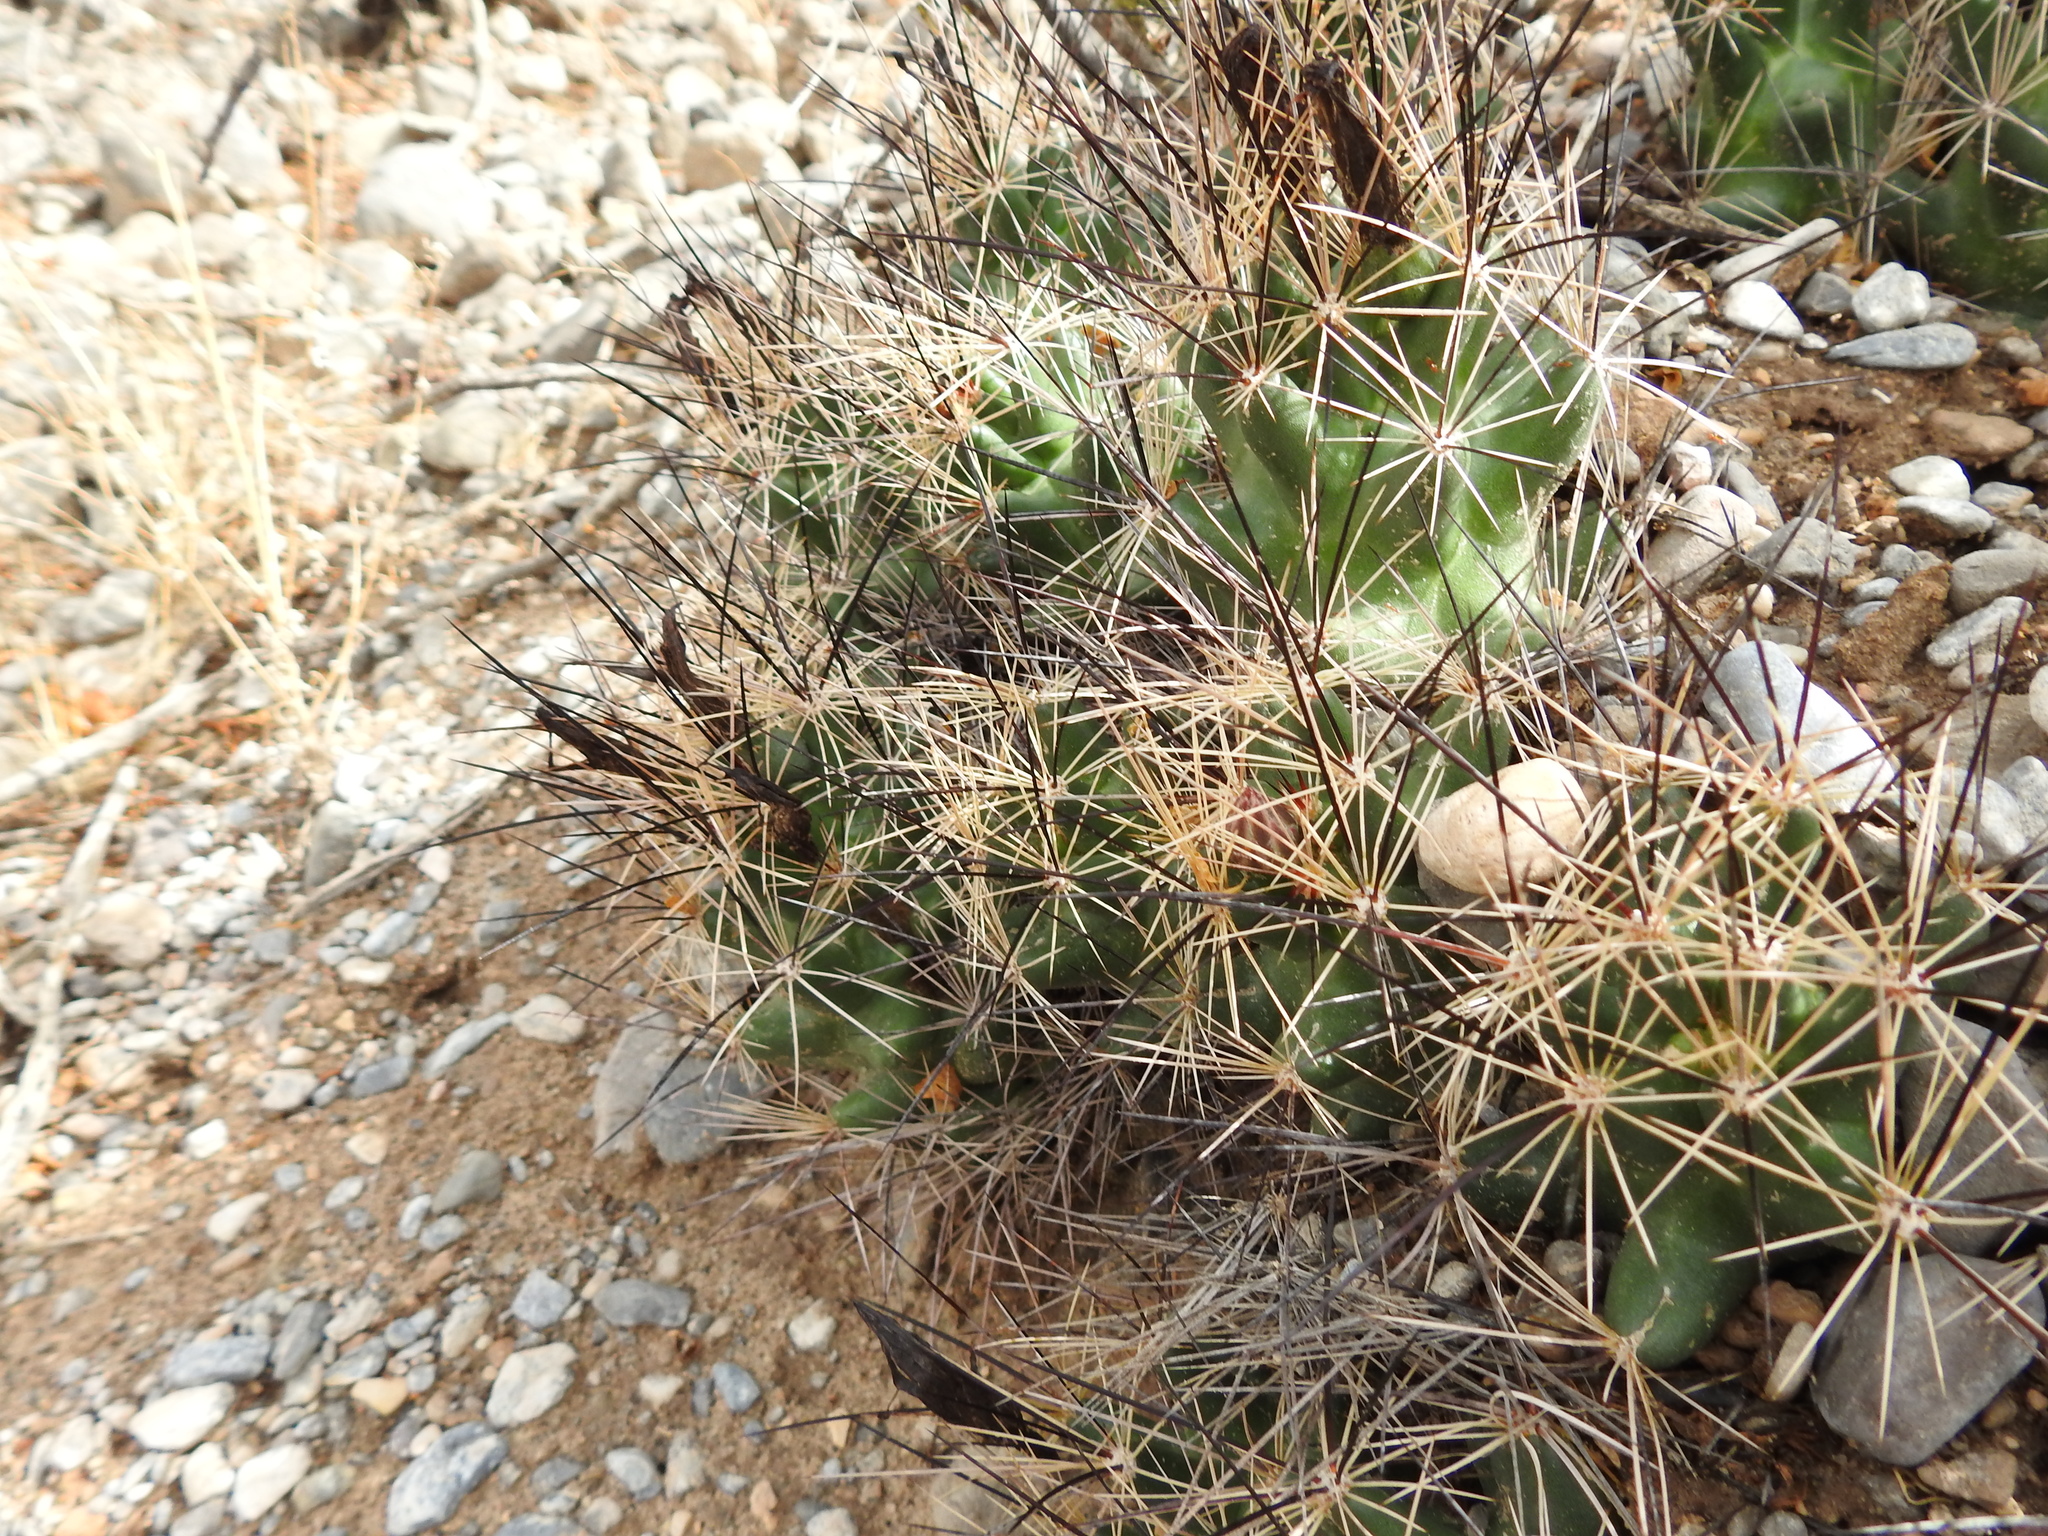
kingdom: Plantae
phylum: Tracheophyta
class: Magnoliopsida
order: Caryophyllales
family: Cactaceae
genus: Coryphantha
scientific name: Coryphantha macromeris
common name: Nipple beehive cactus
